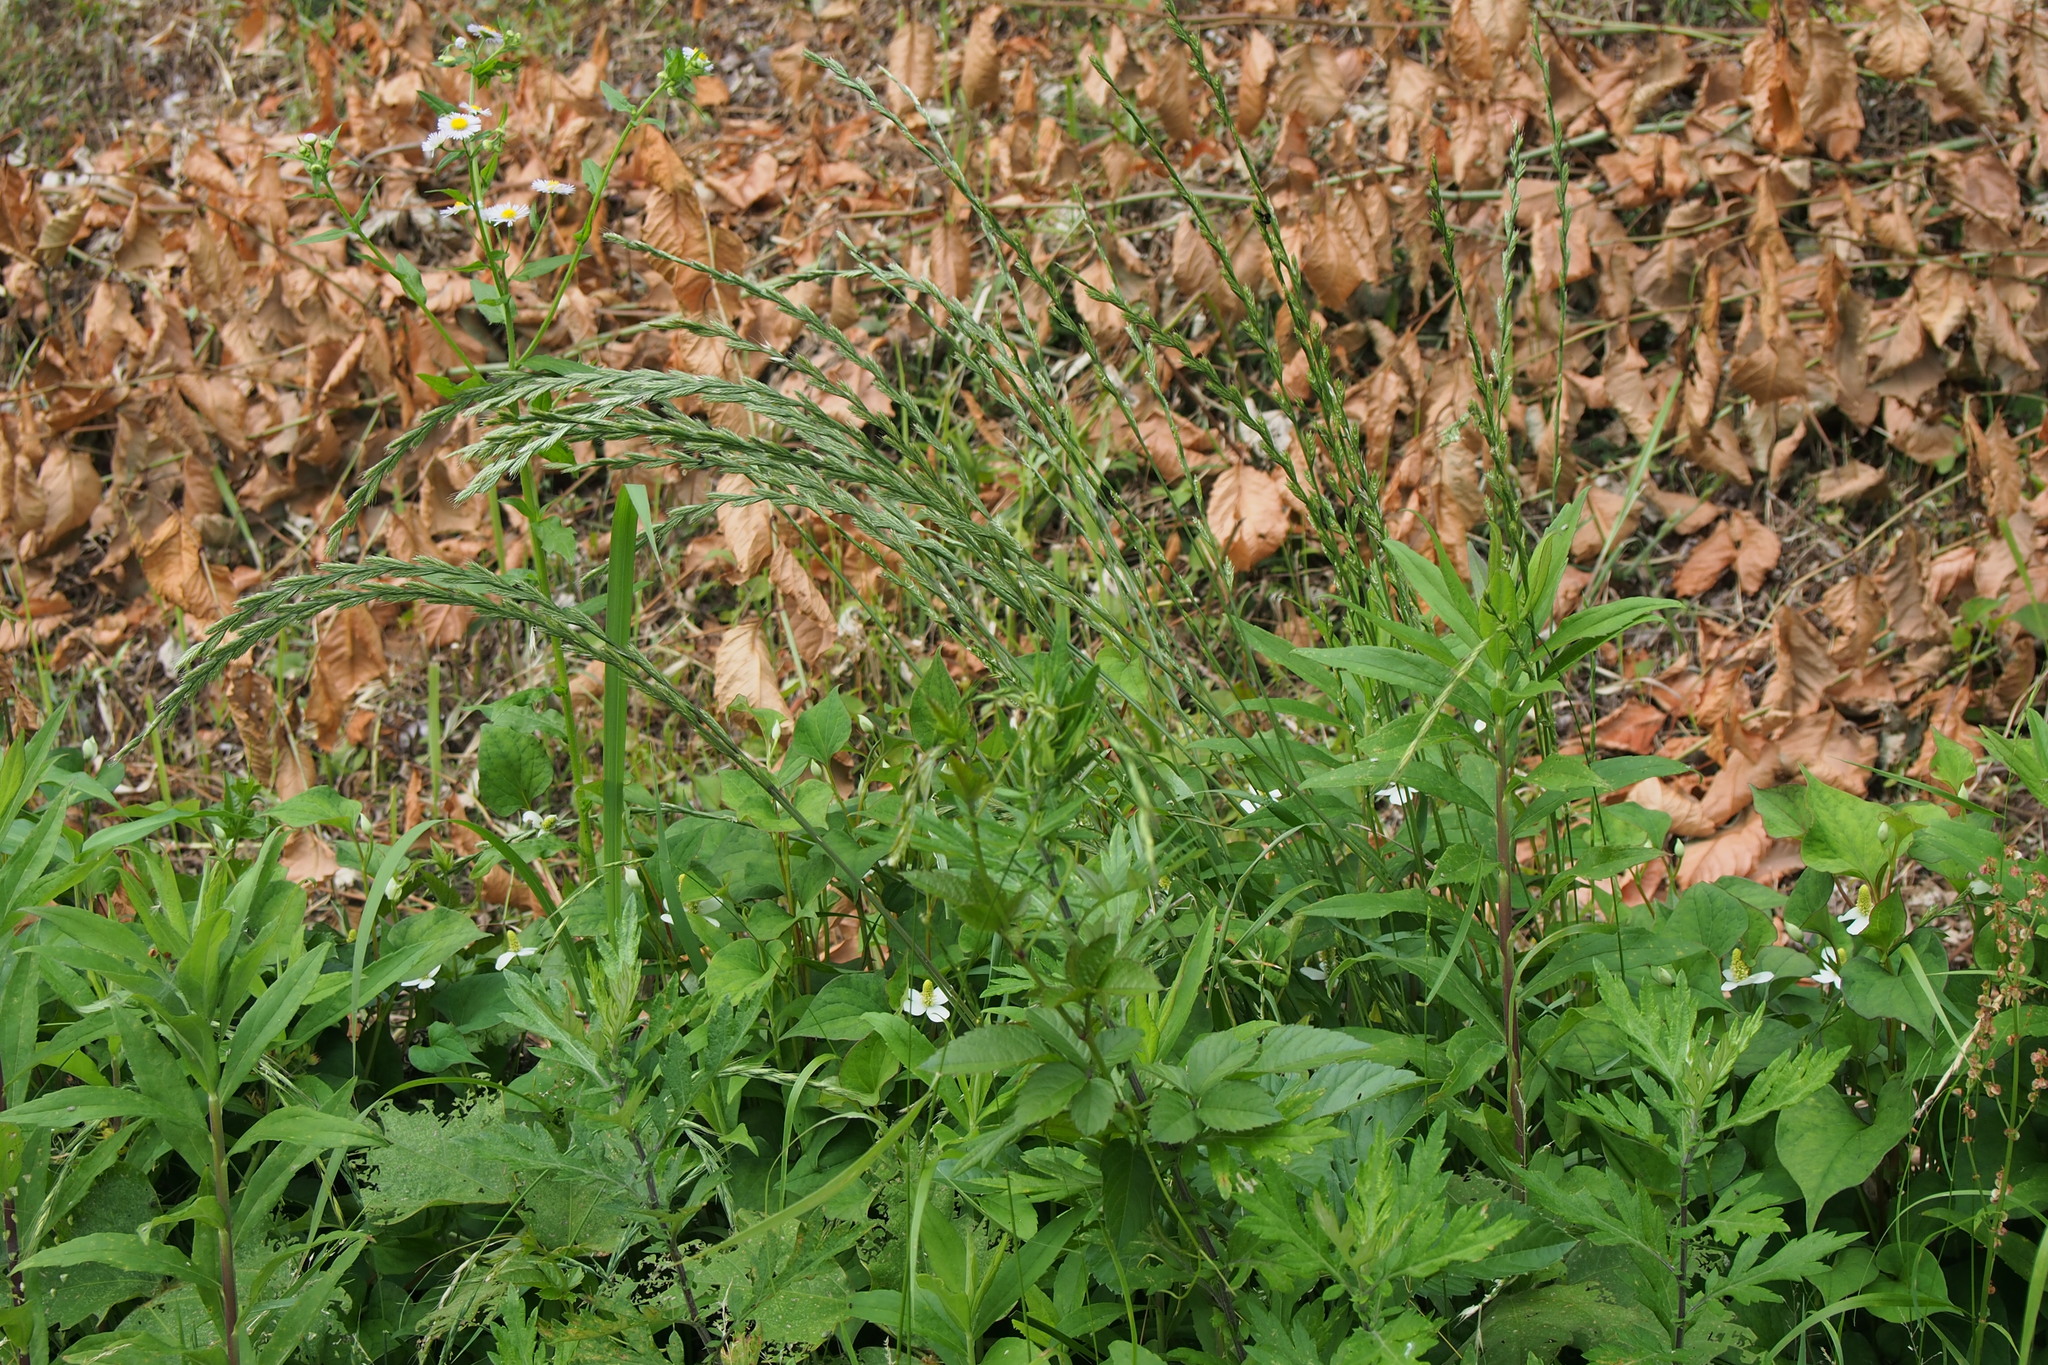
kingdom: Plantae
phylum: Tracheophyta
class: Liliopsida
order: Poales
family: Poaceae
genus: Lolium
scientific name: Lolium multiflorum
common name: Annual ryegrass
